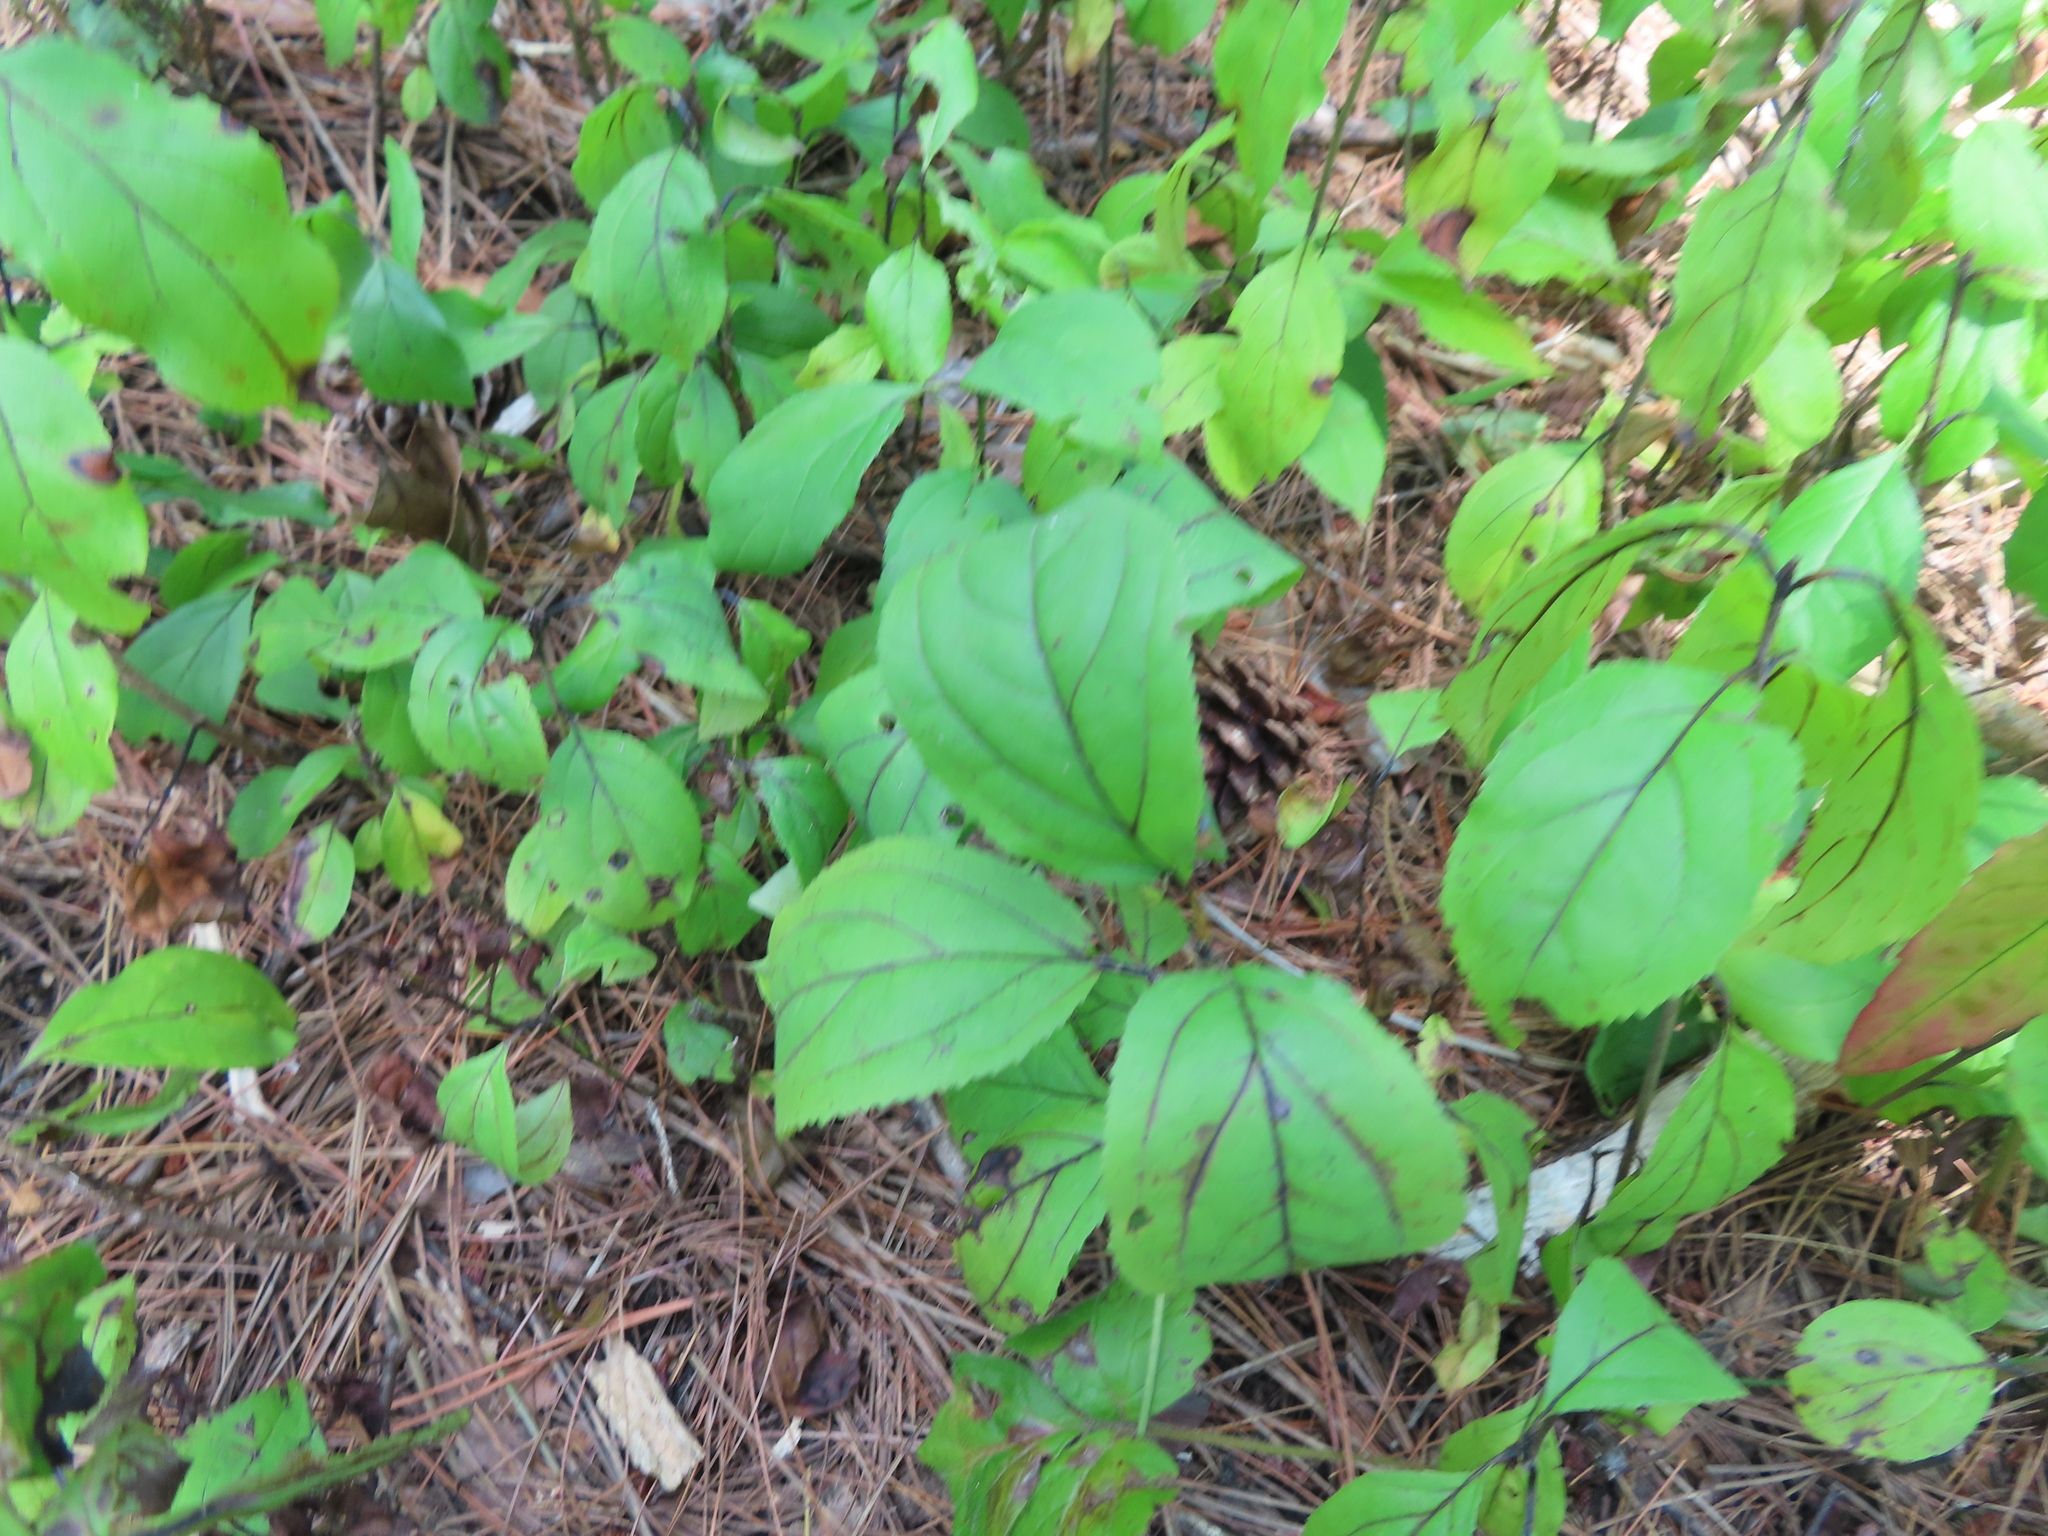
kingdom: Plantae
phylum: Tracheophyta
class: Magnoliopsida
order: Rosales
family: Rhamnaceae
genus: Rhamnus
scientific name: Rhamnus cathartica
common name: Common buckthorn
